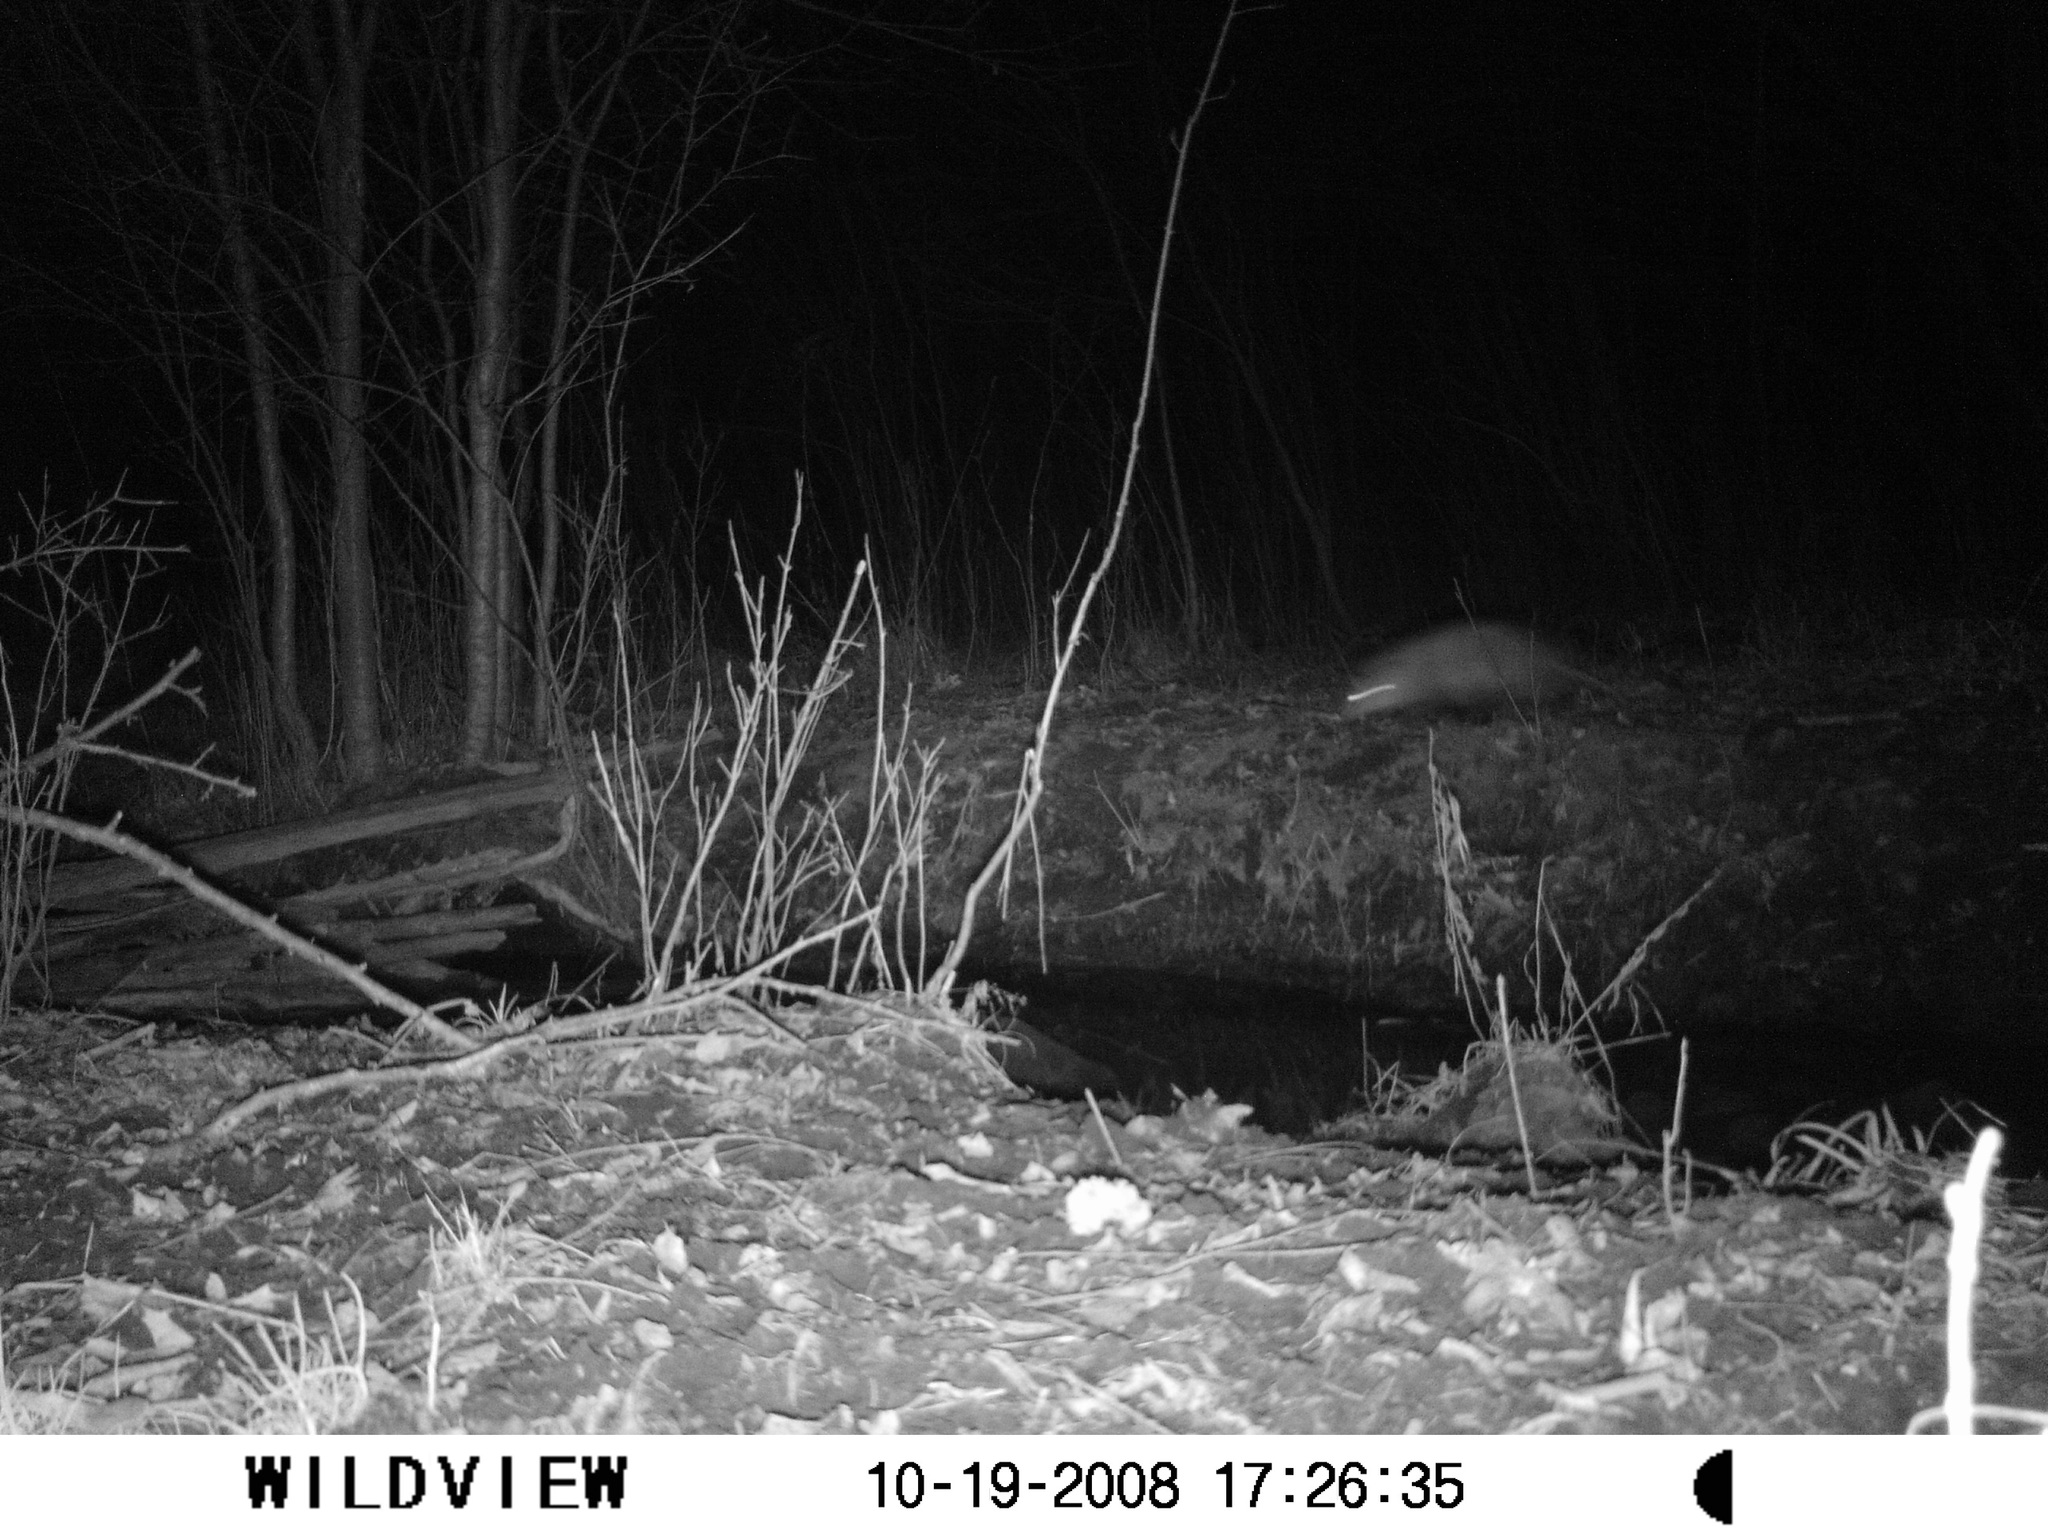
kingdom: Animalia
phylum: Chordata
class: Mammalia
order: Didelphimorphia
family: Didelphidae
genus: Didelphis
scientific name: Didelphis virginiana
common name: Virginia opossum
